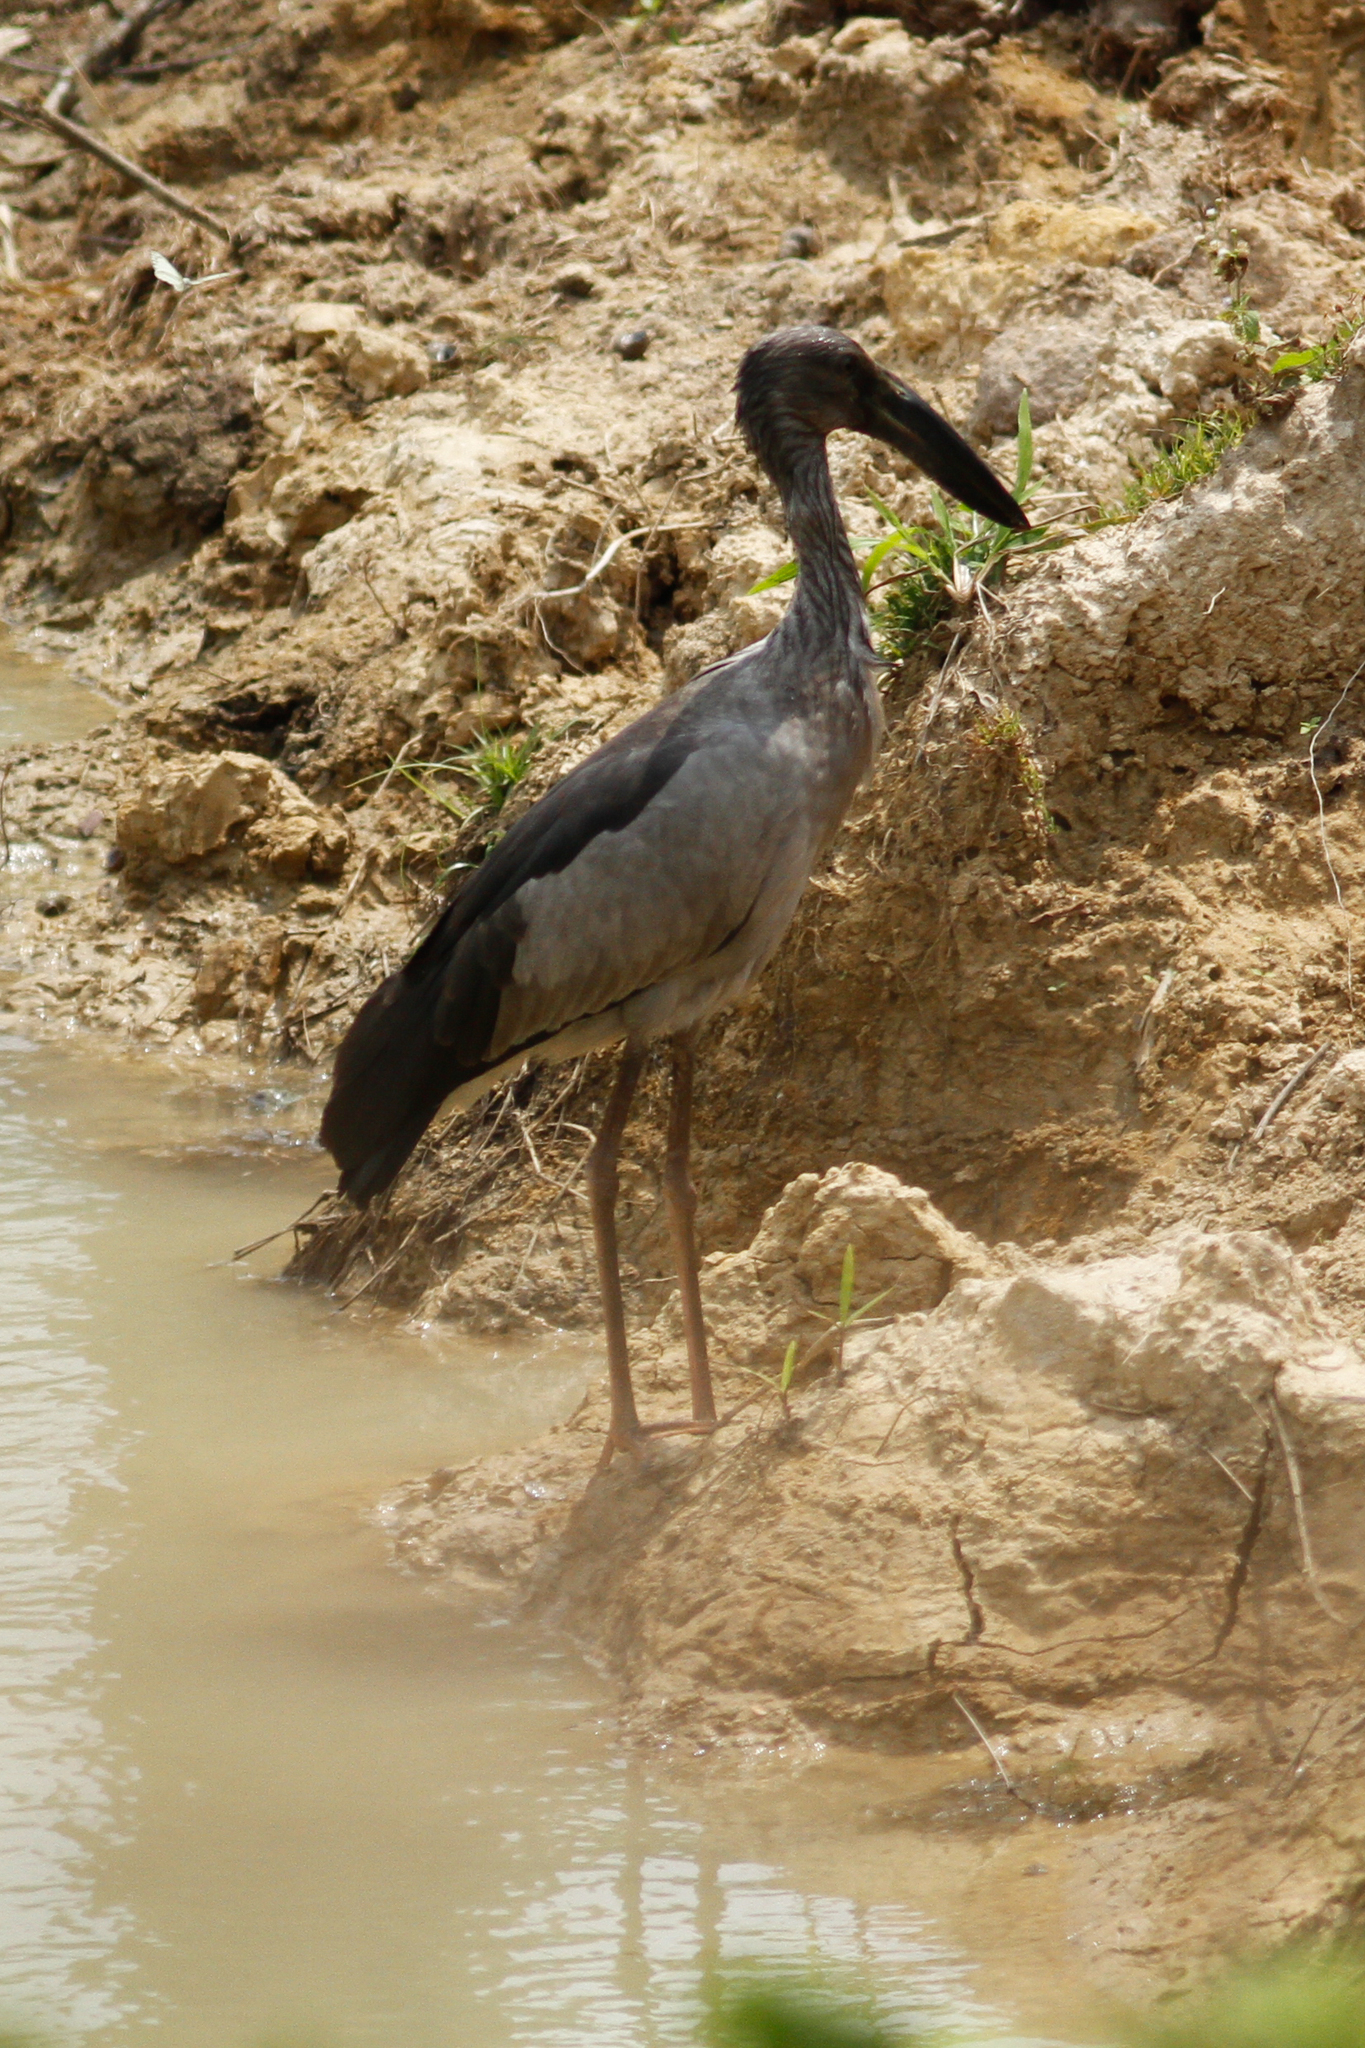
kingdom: Animalia
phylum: Chordata
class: Aves
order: Ciconiiformes
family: Ciconiidae
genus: Anastomus
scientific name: Anastomus oscitans
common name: Asian openbill
